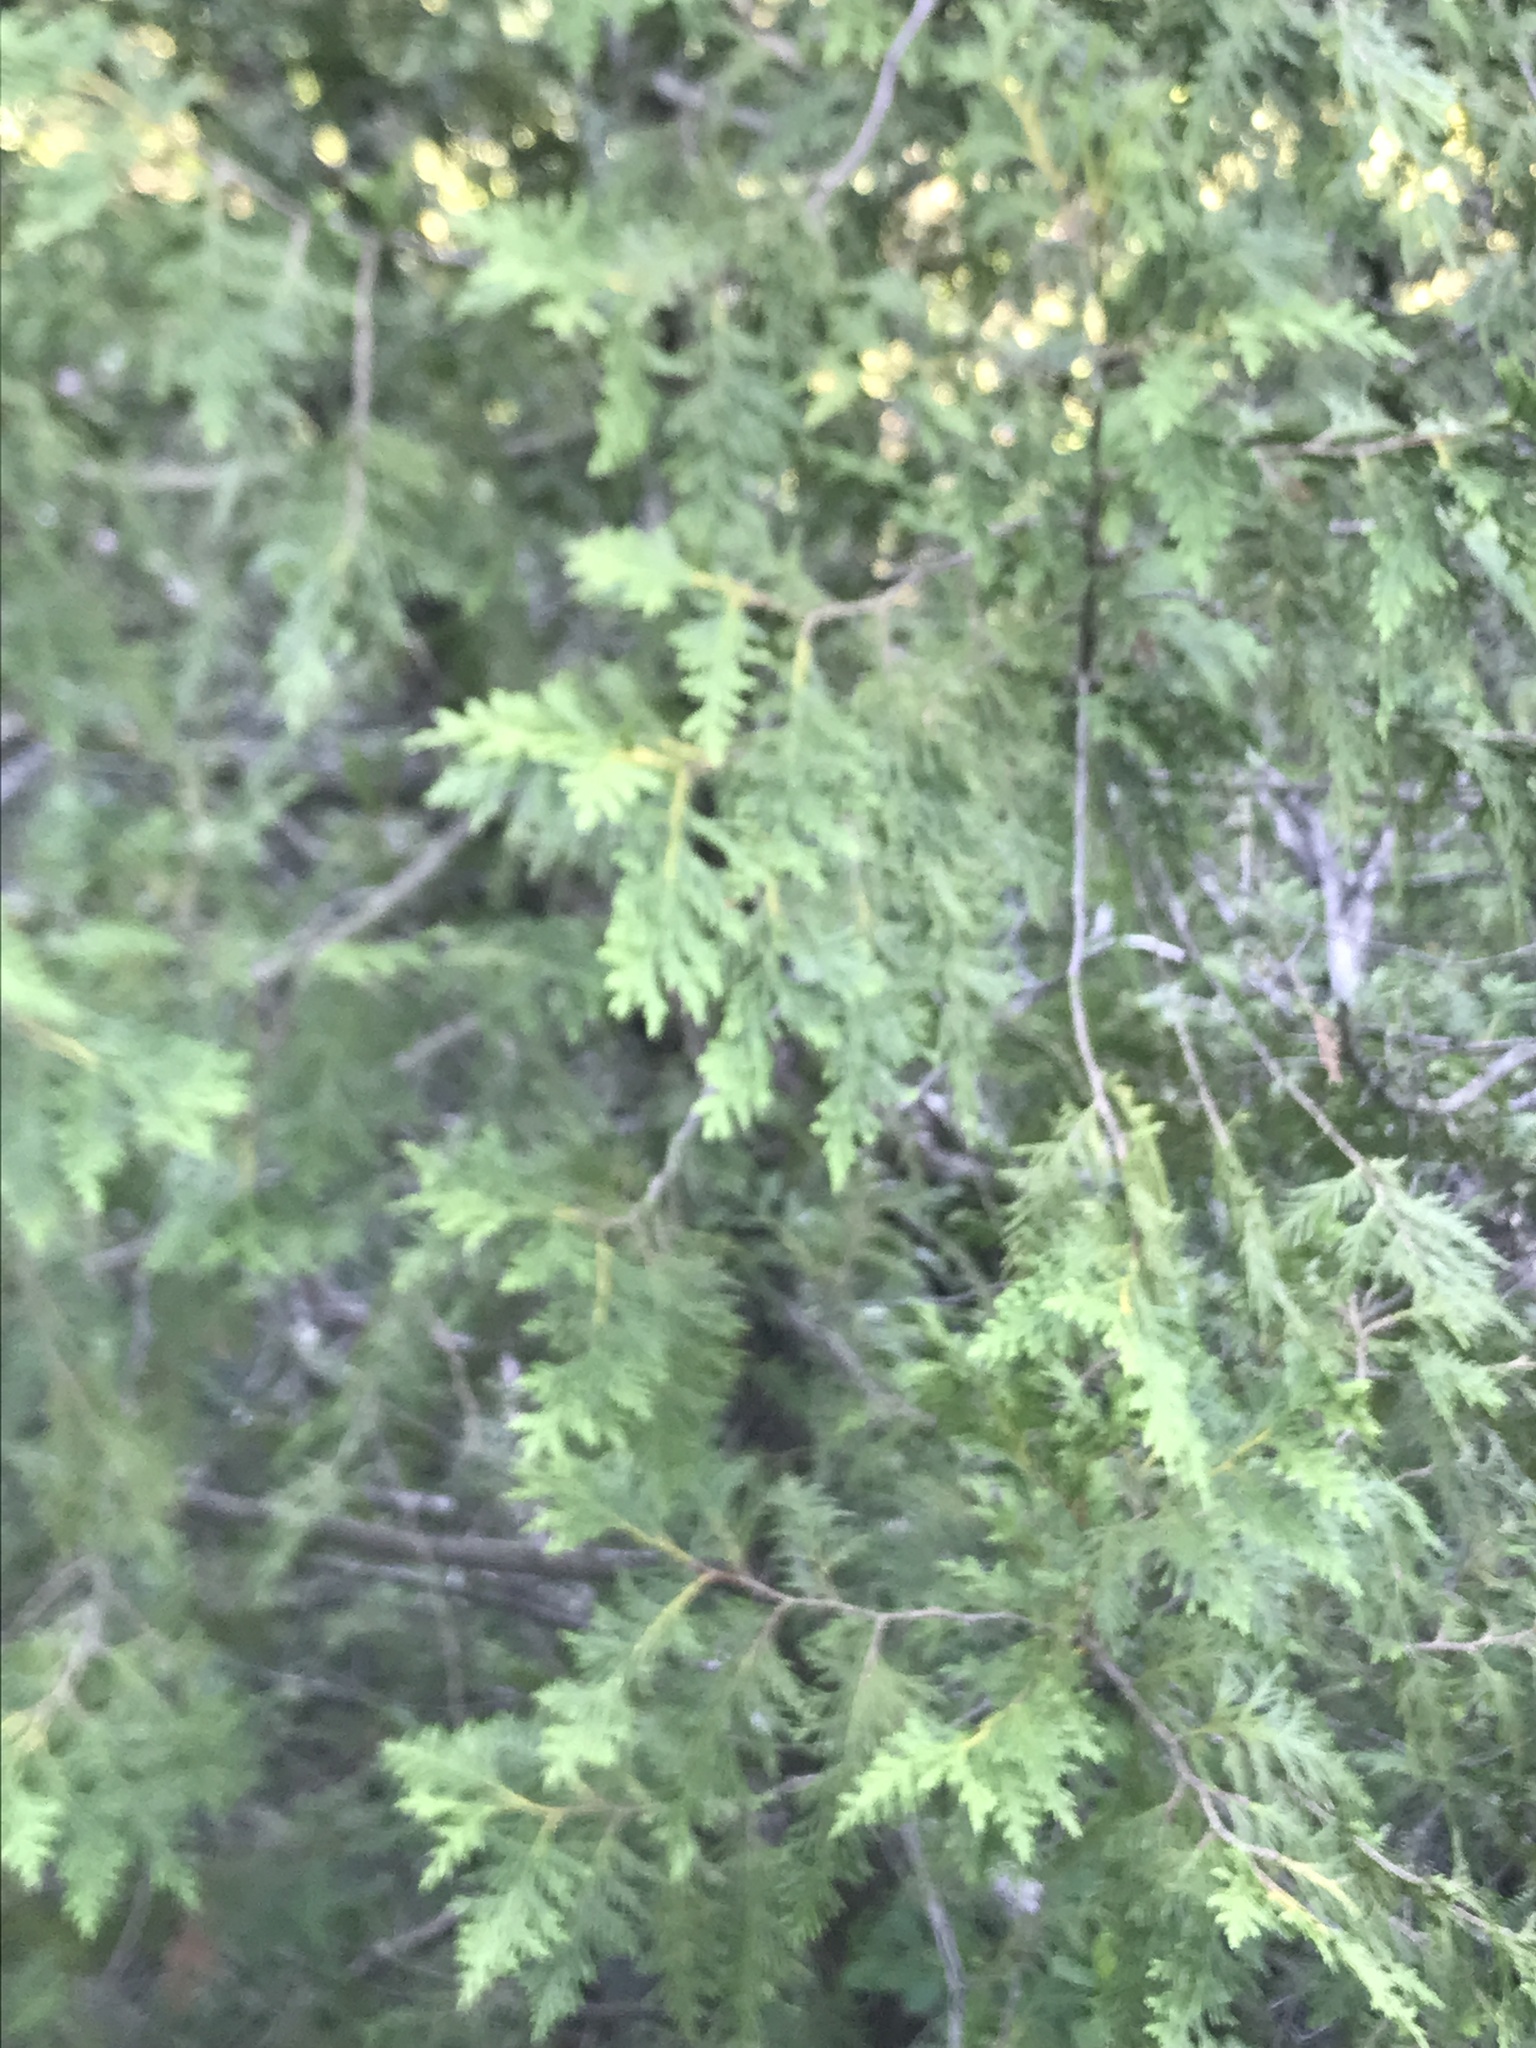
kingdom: Plantae
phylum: Tracheophyta
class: Pinopsida
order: Pinales
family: Cupressaceae
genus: Thuja
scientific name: Thuja occidentalis
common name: Northern white-cedar
